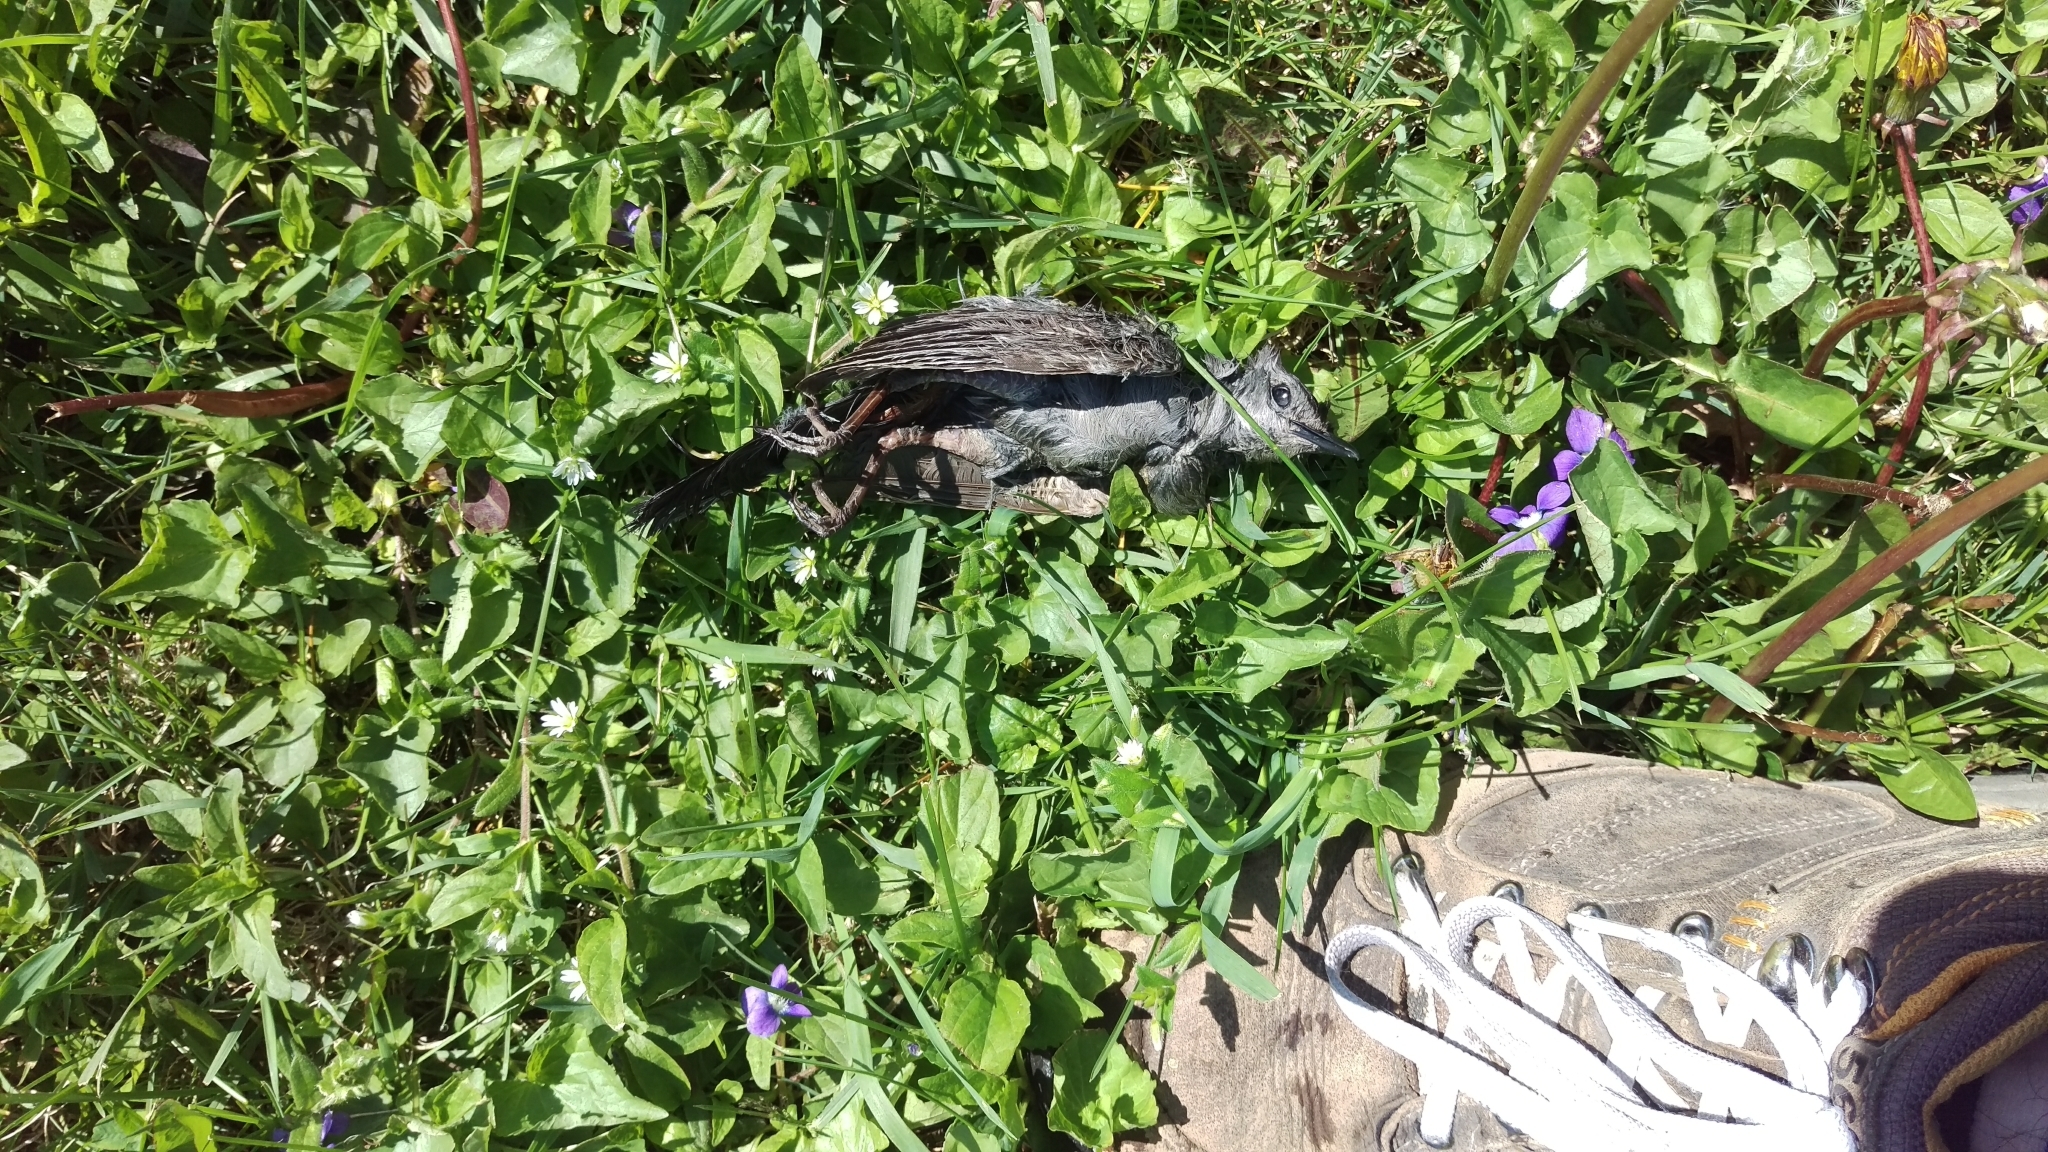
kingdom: Animalia
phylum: Chordata
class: Aves
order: Passeriformes
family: Mimidae
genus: Dumetella
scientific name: Dumetella carolinensis
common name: Gray catbird
